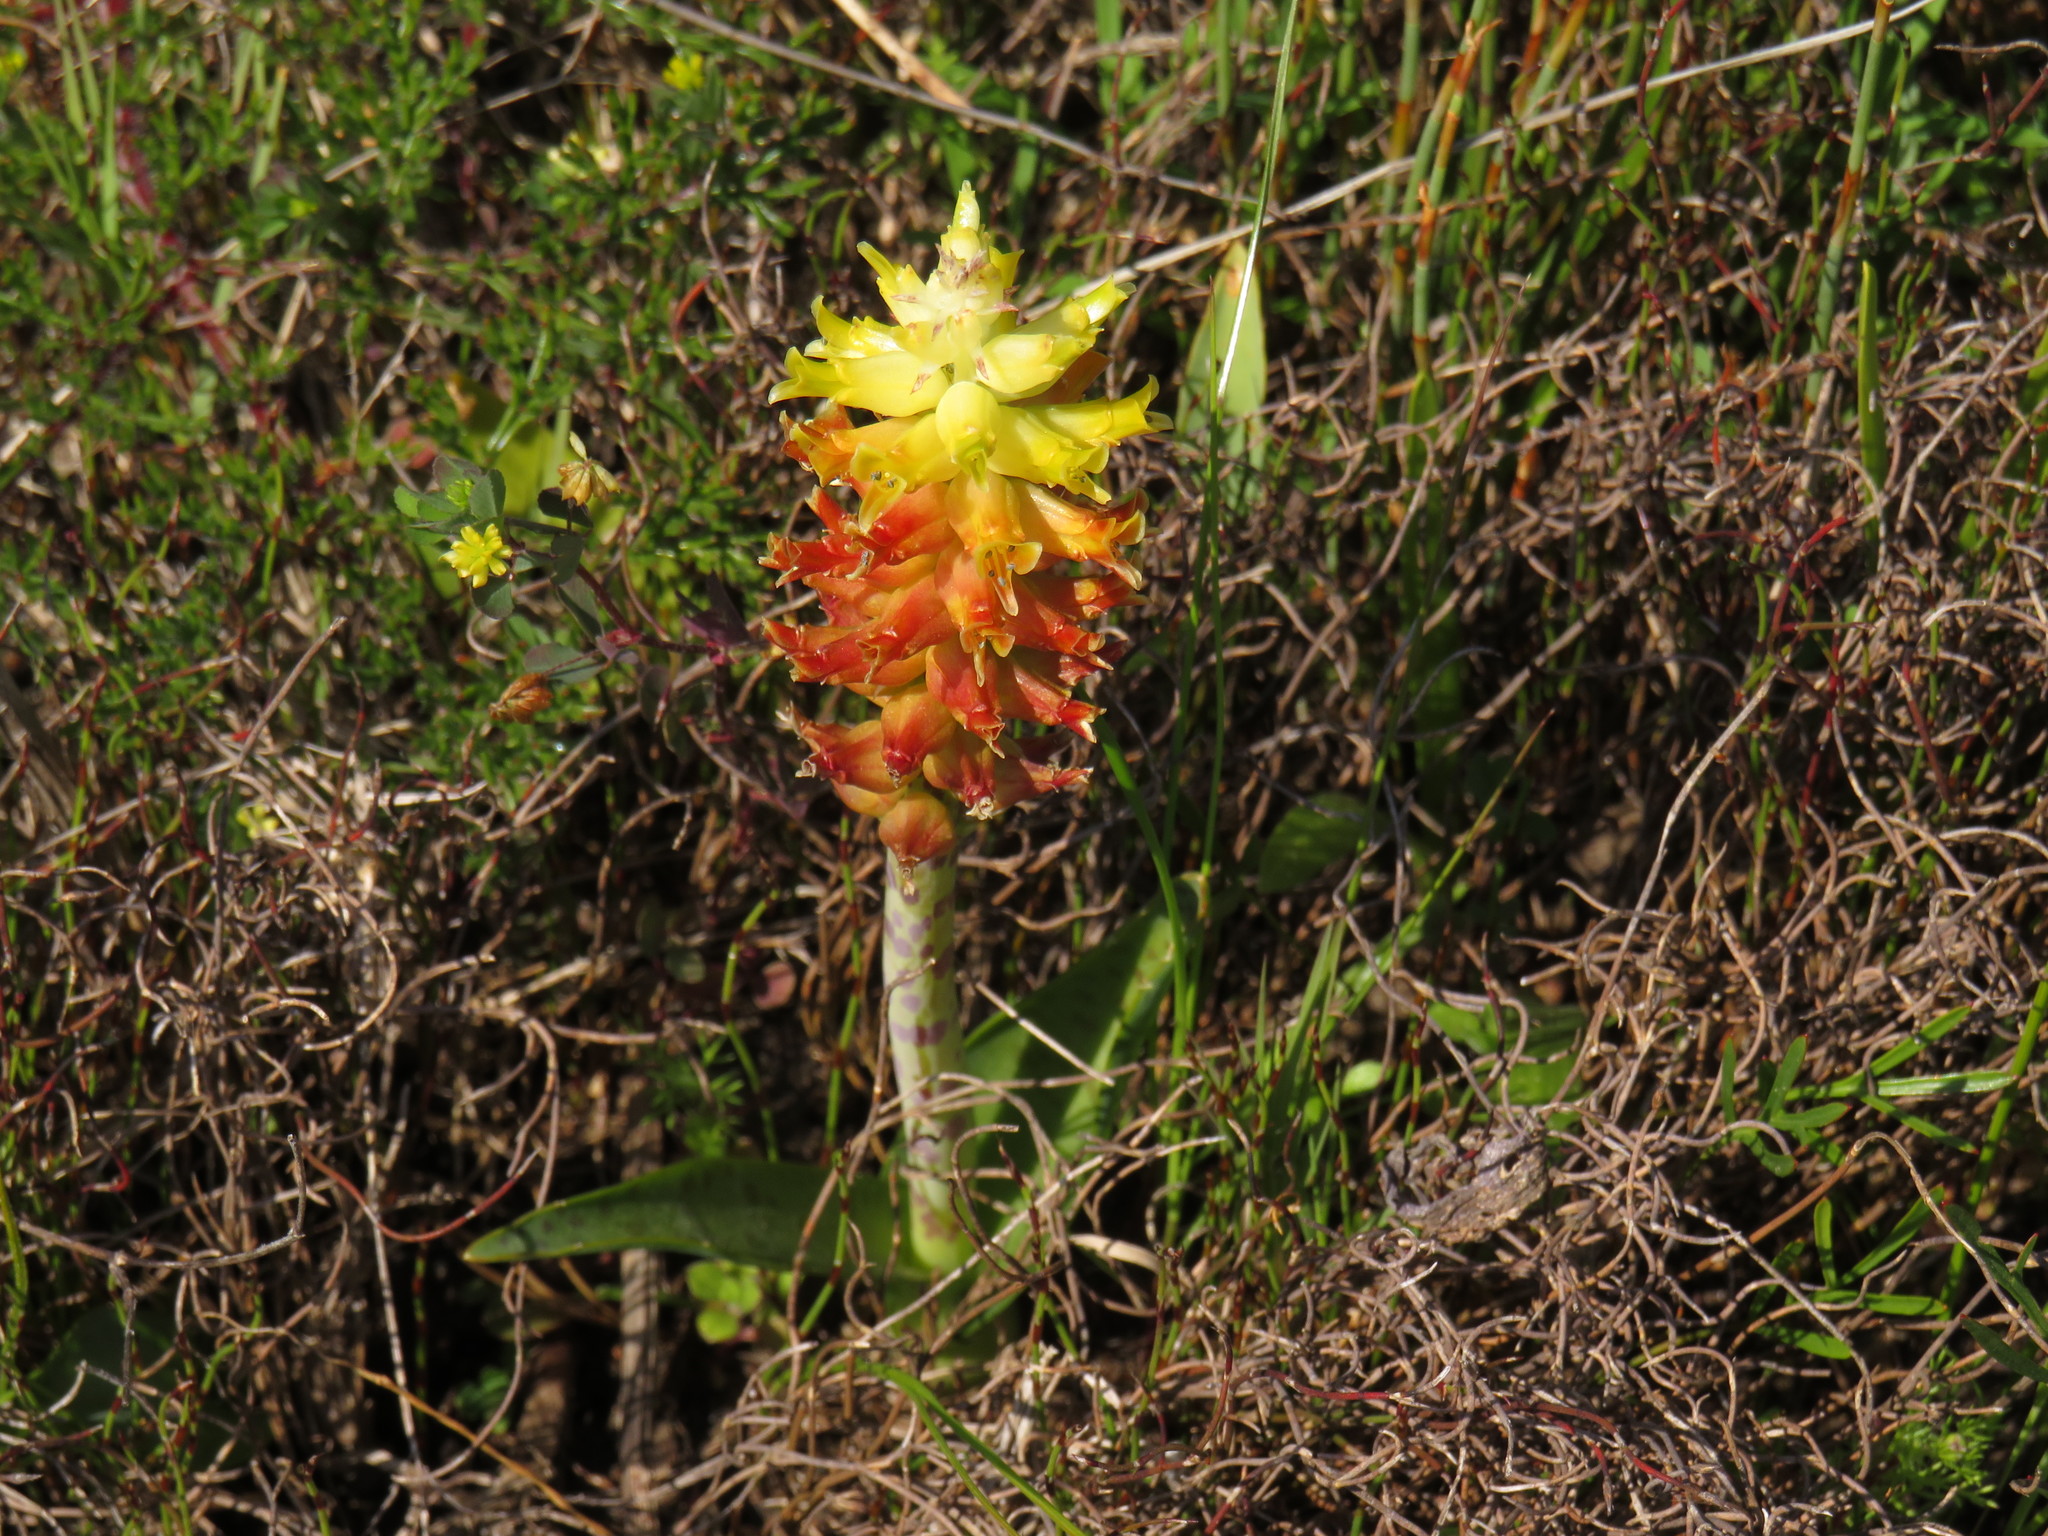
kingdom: Plantae
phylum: Tracheophyta
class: Liliopsida
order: Asparagales
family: Asparagaceae
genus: Lachenalia
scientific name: Lachenalia lutea
